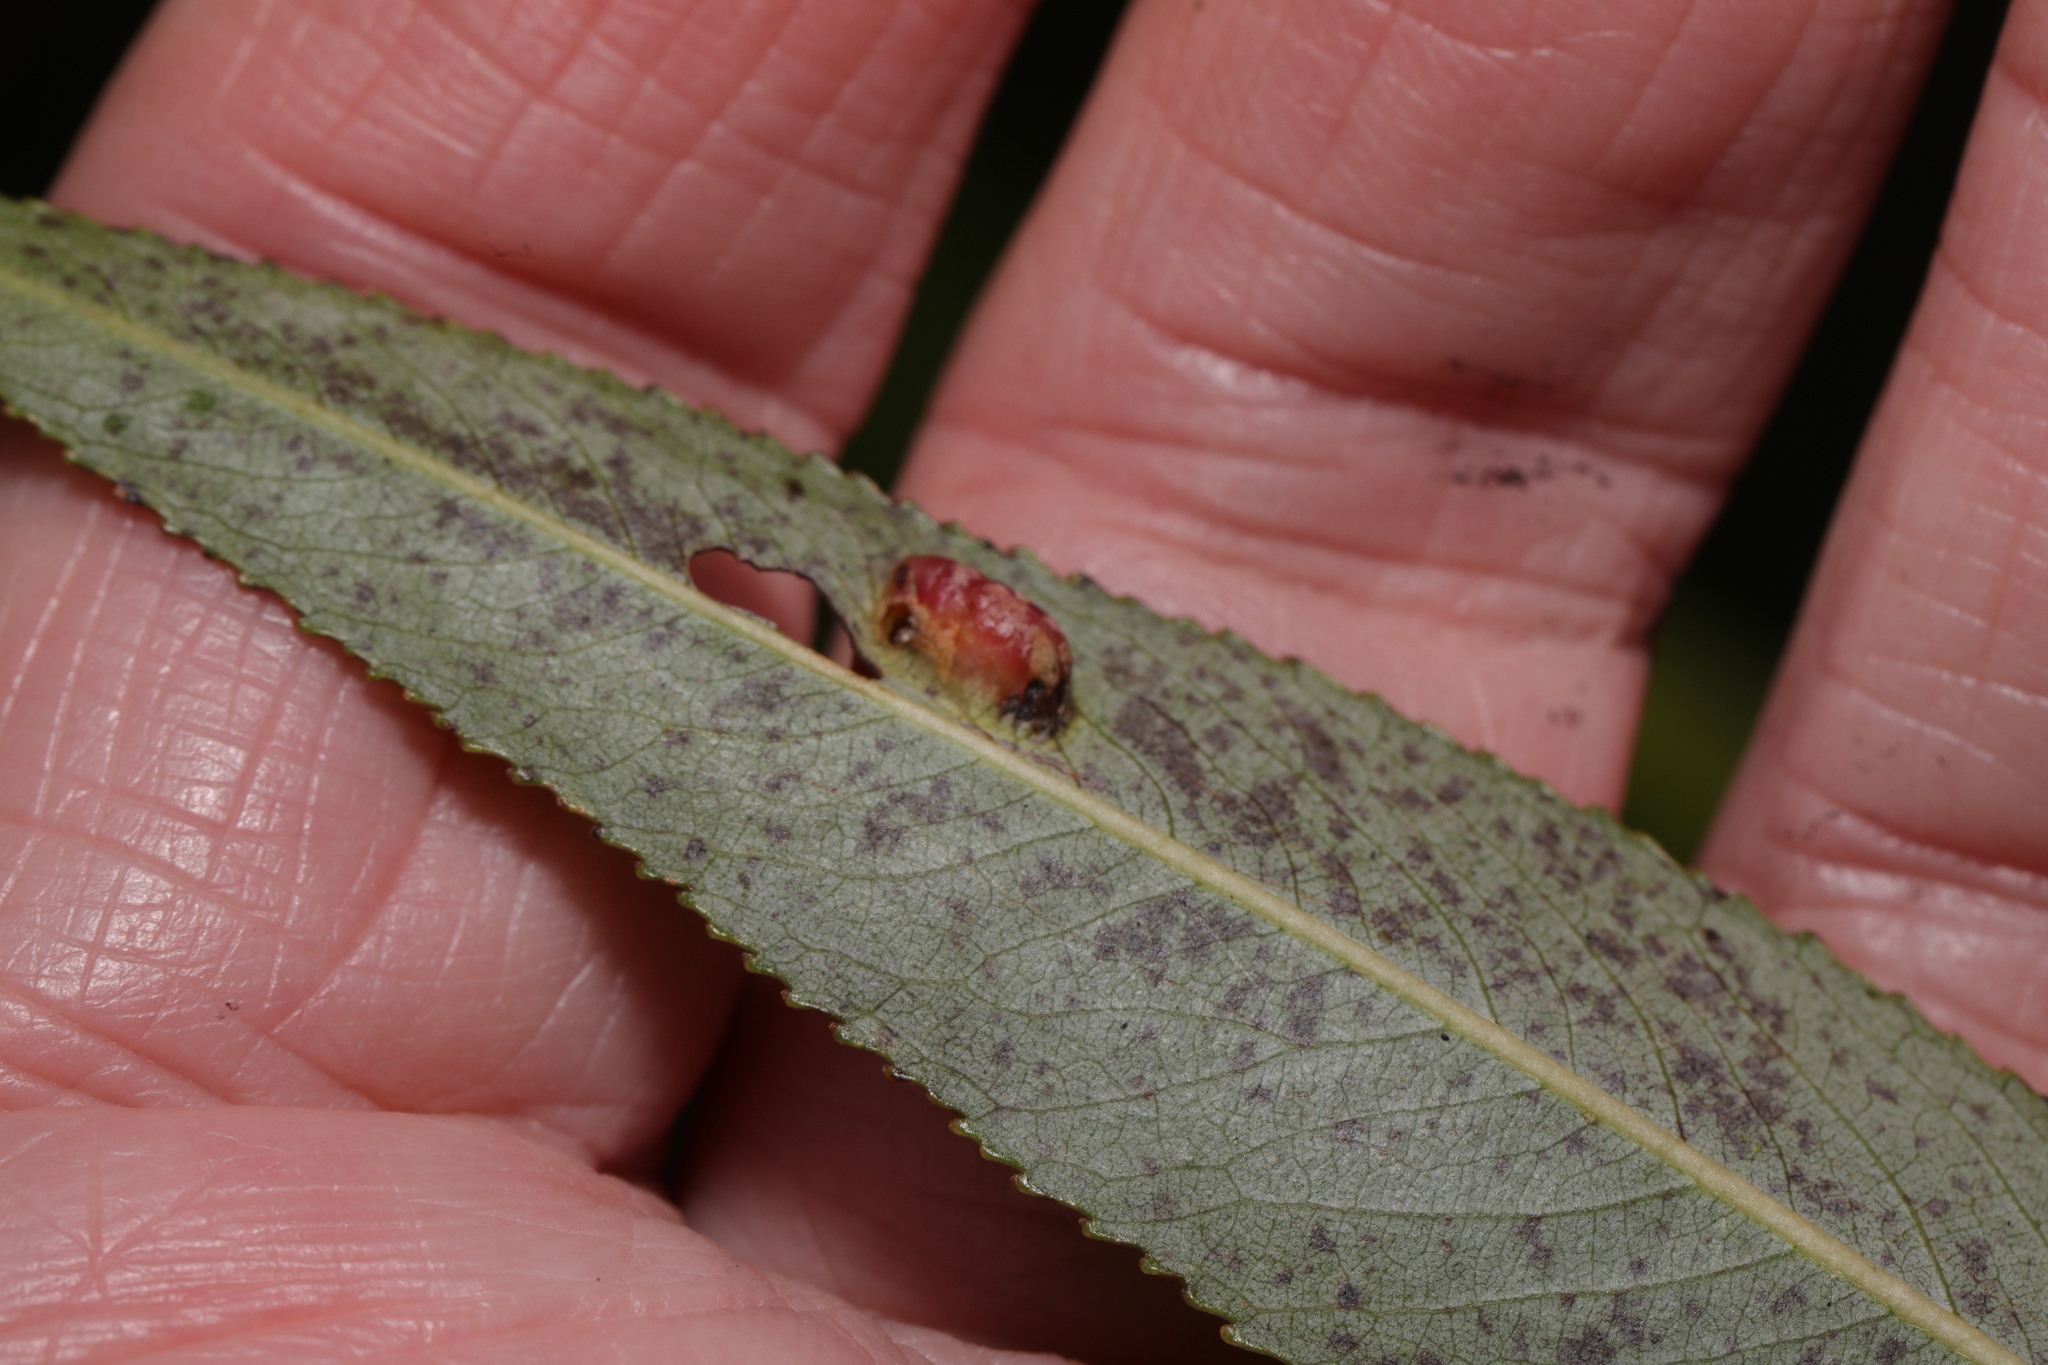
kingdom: Animalia
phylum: Arthropoda
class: Insecta
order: Hymenoptera
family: Tenthredinidae
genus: Pontania
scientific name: Pontania proxima
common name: Common sawfly
